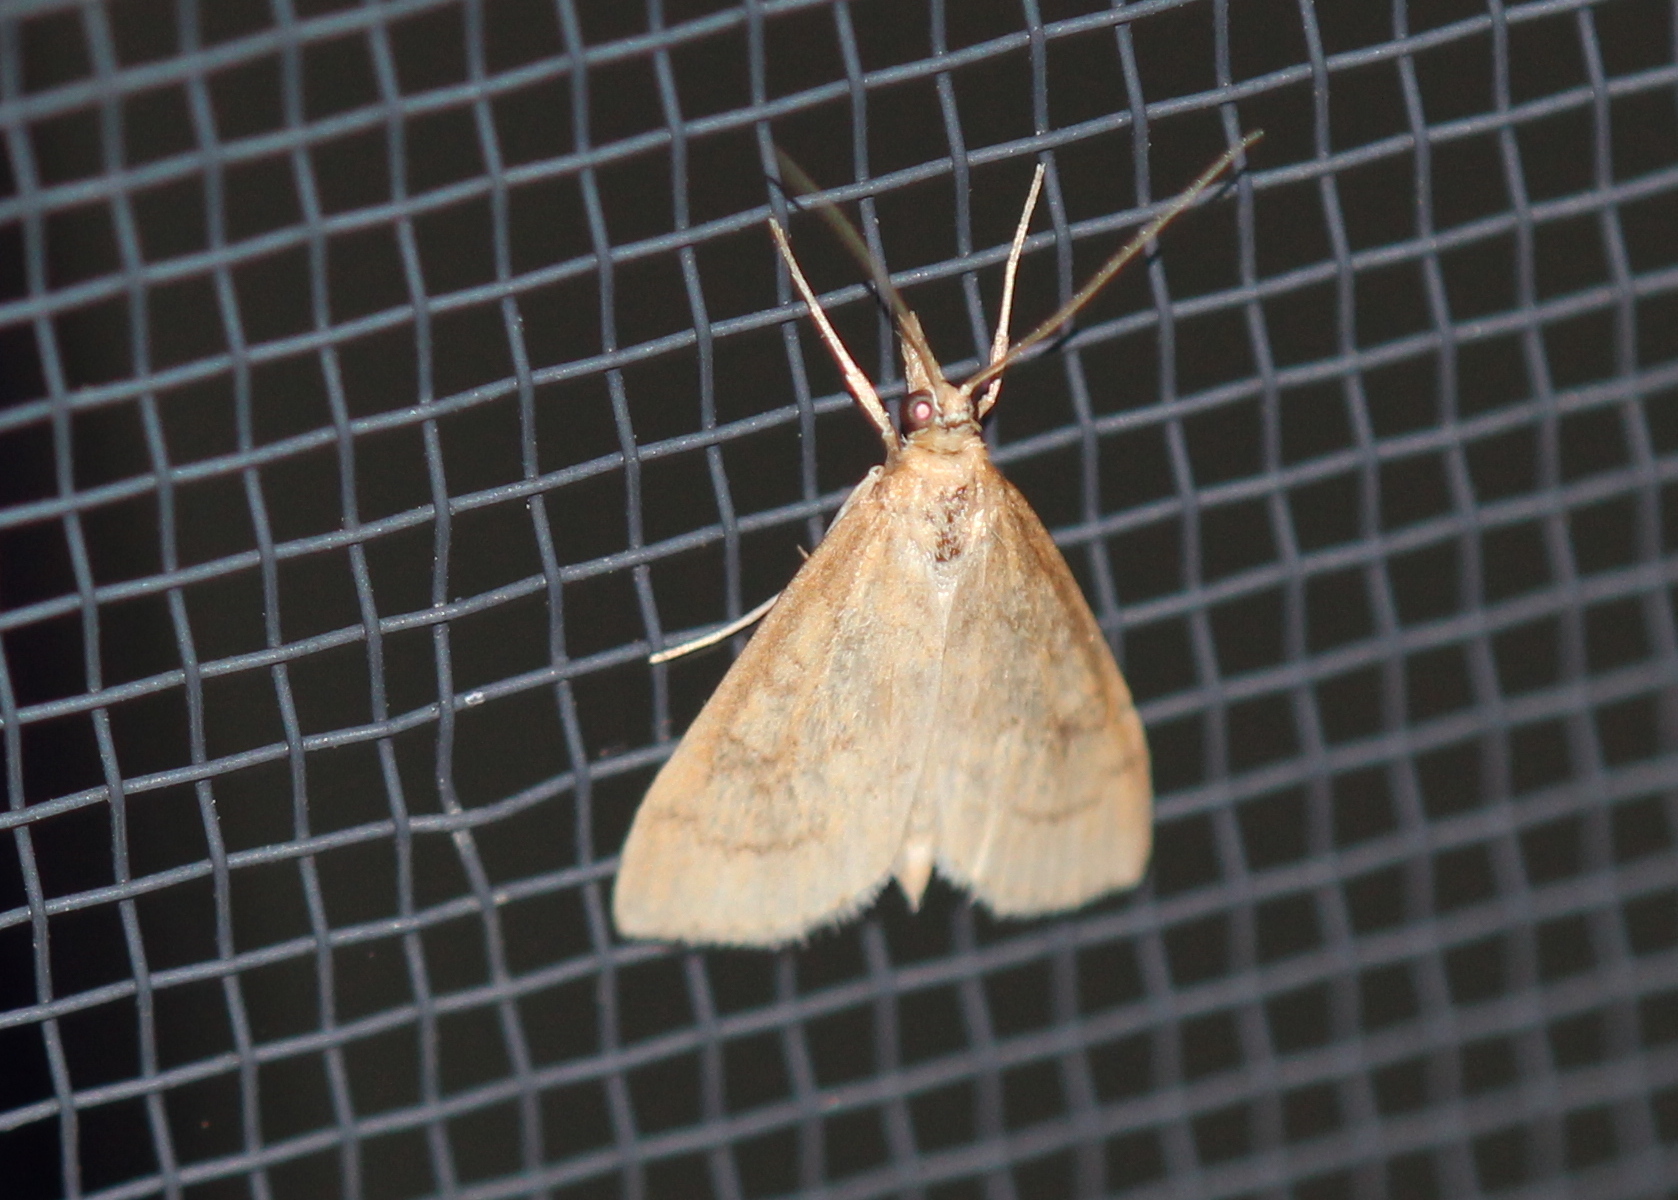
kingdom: Animalia
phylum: Arthropoda
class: Insecta
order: Lepidoptera
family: Crambidae
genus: Udea
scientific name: Udea rubigalis
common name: Celery leaftier moth
